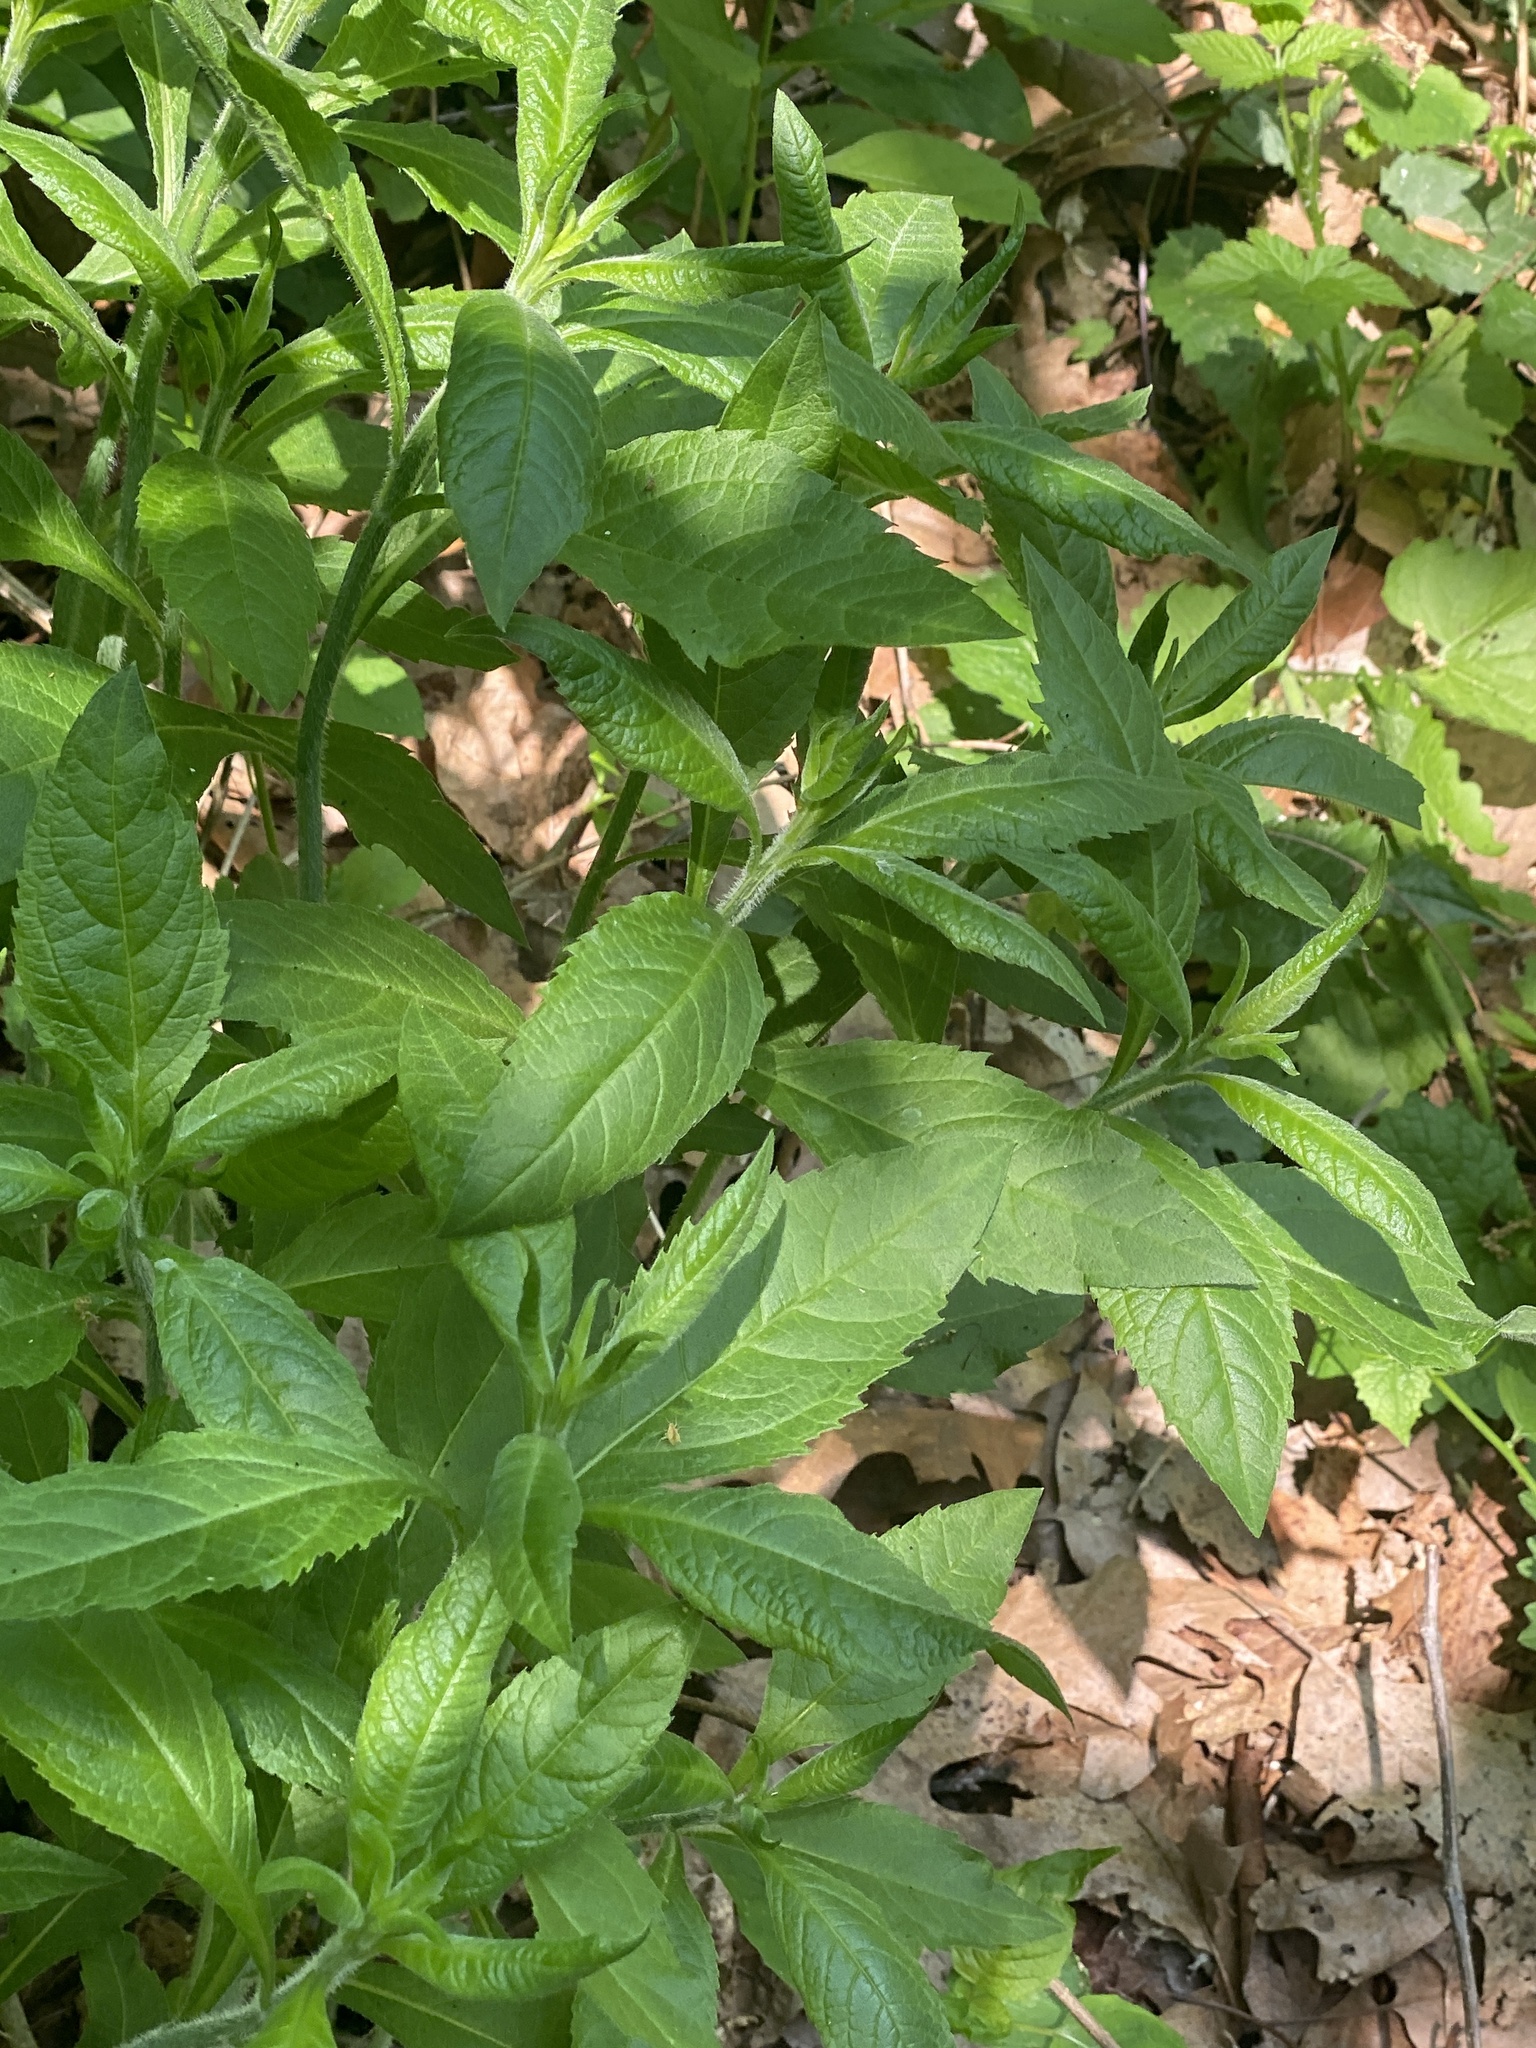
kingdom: Plantae
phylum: Tracheophyta
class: Magnoliopsida
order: Asterales
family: Asteraceae
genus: Verbesina
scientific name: Verbesina alternifolia
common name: Wingstem
